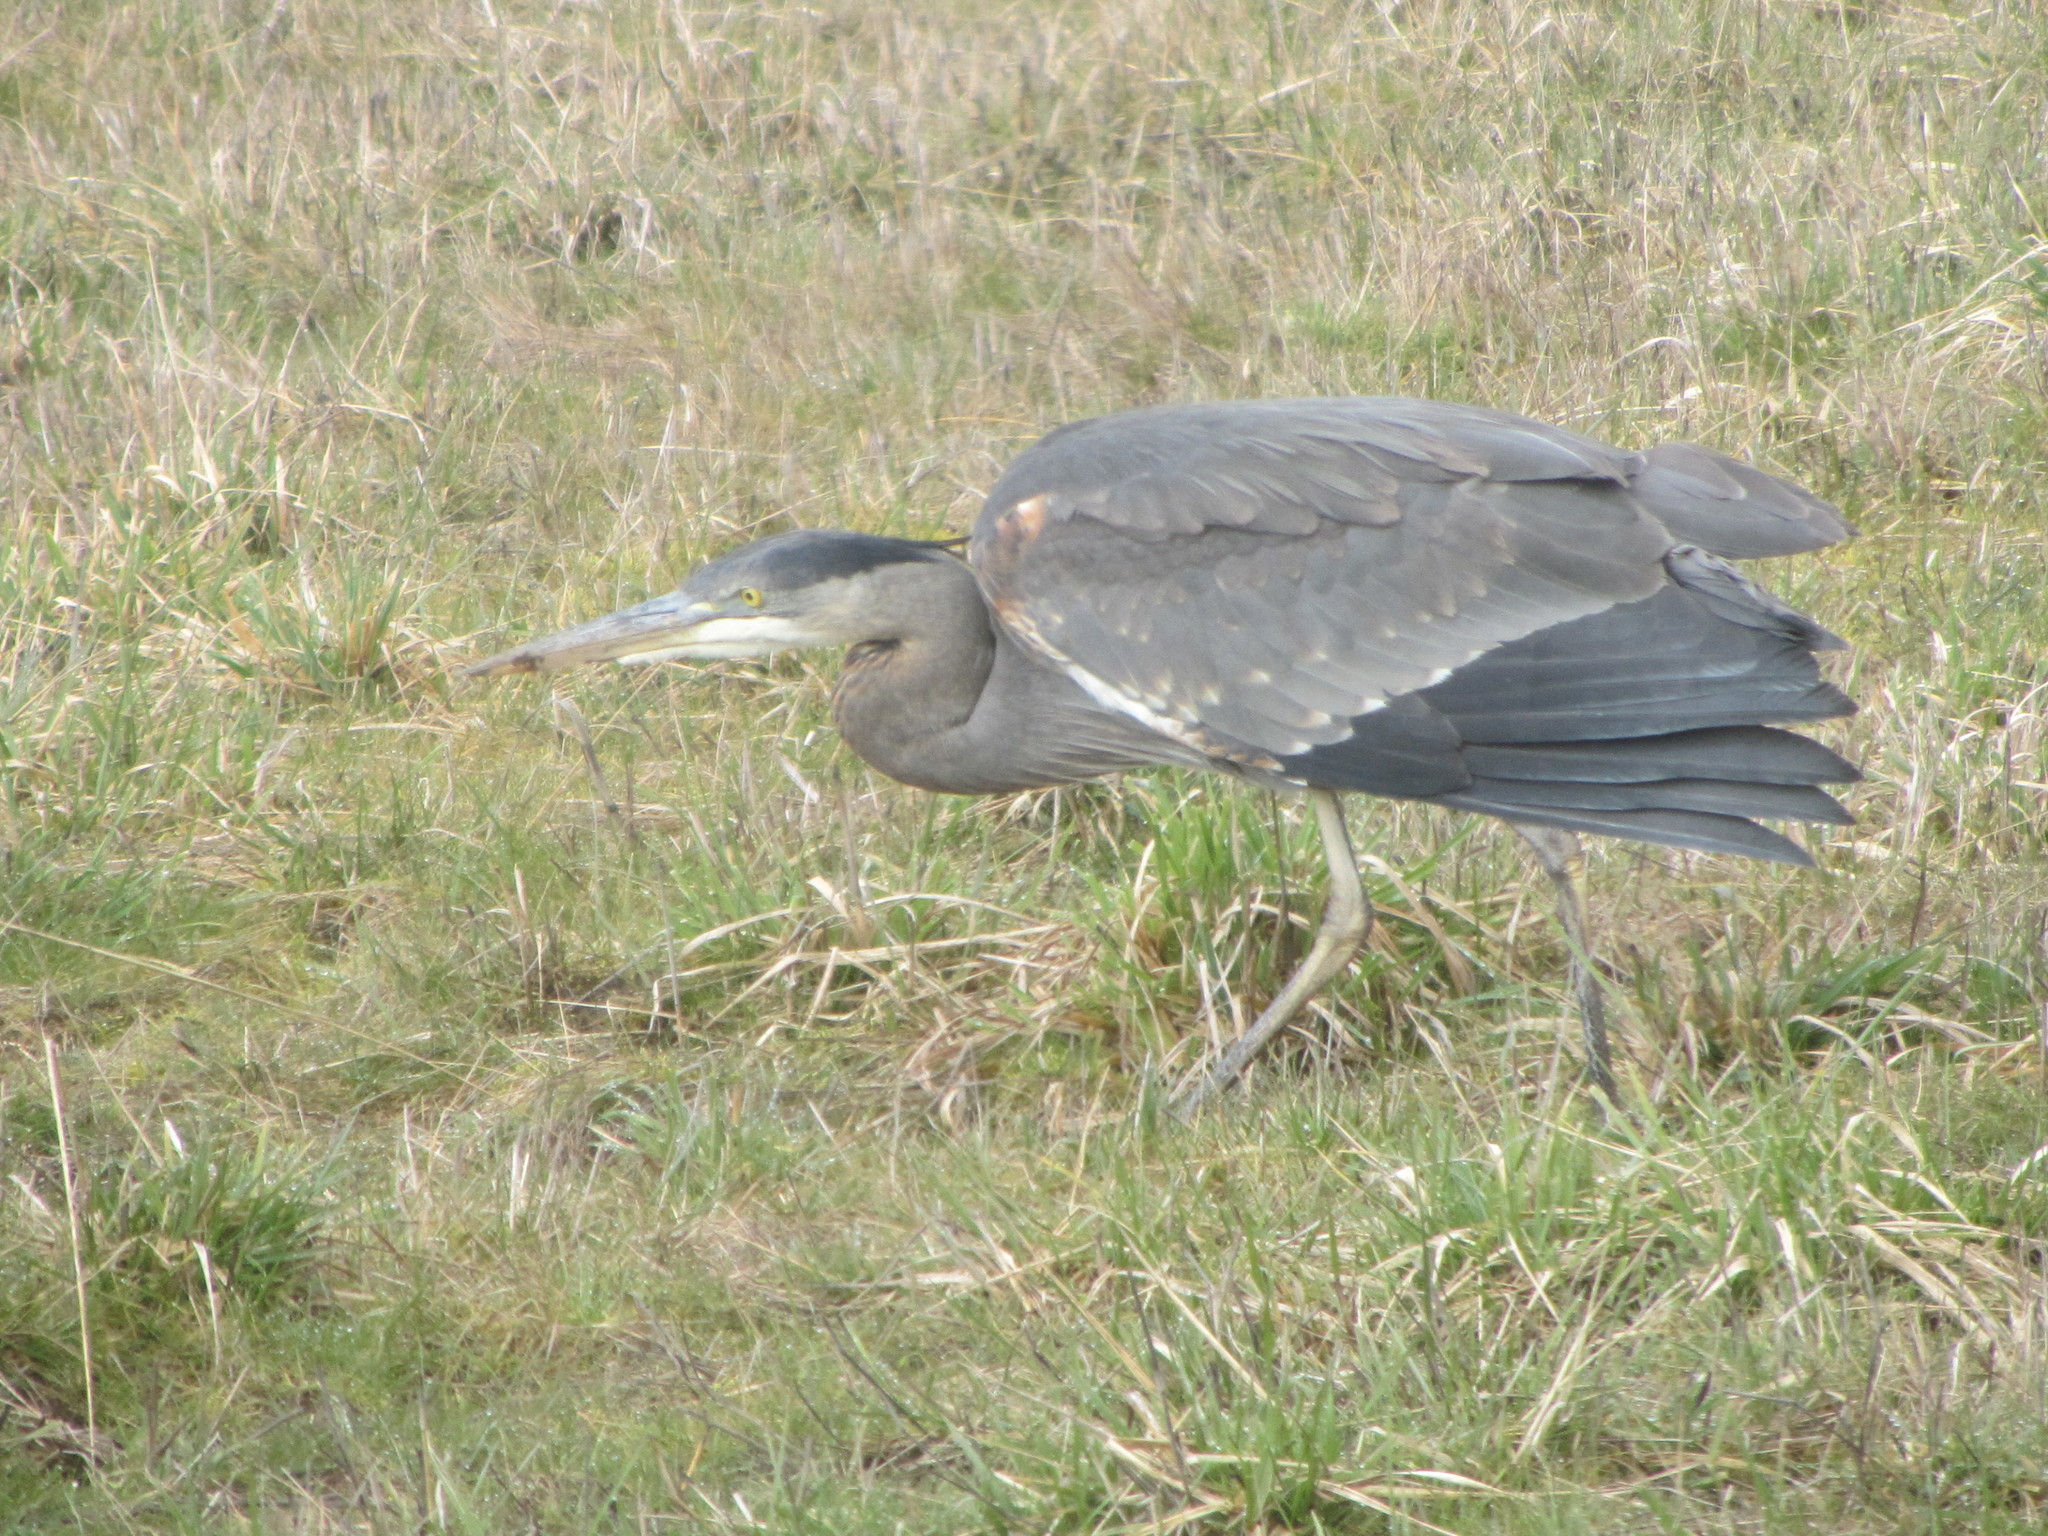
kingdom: Animalia
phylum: Chordata
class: Aves
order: Pelecaniformes
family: Ardeidae
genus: Ardea
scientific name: Ardea herodias
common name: Great blue heron
